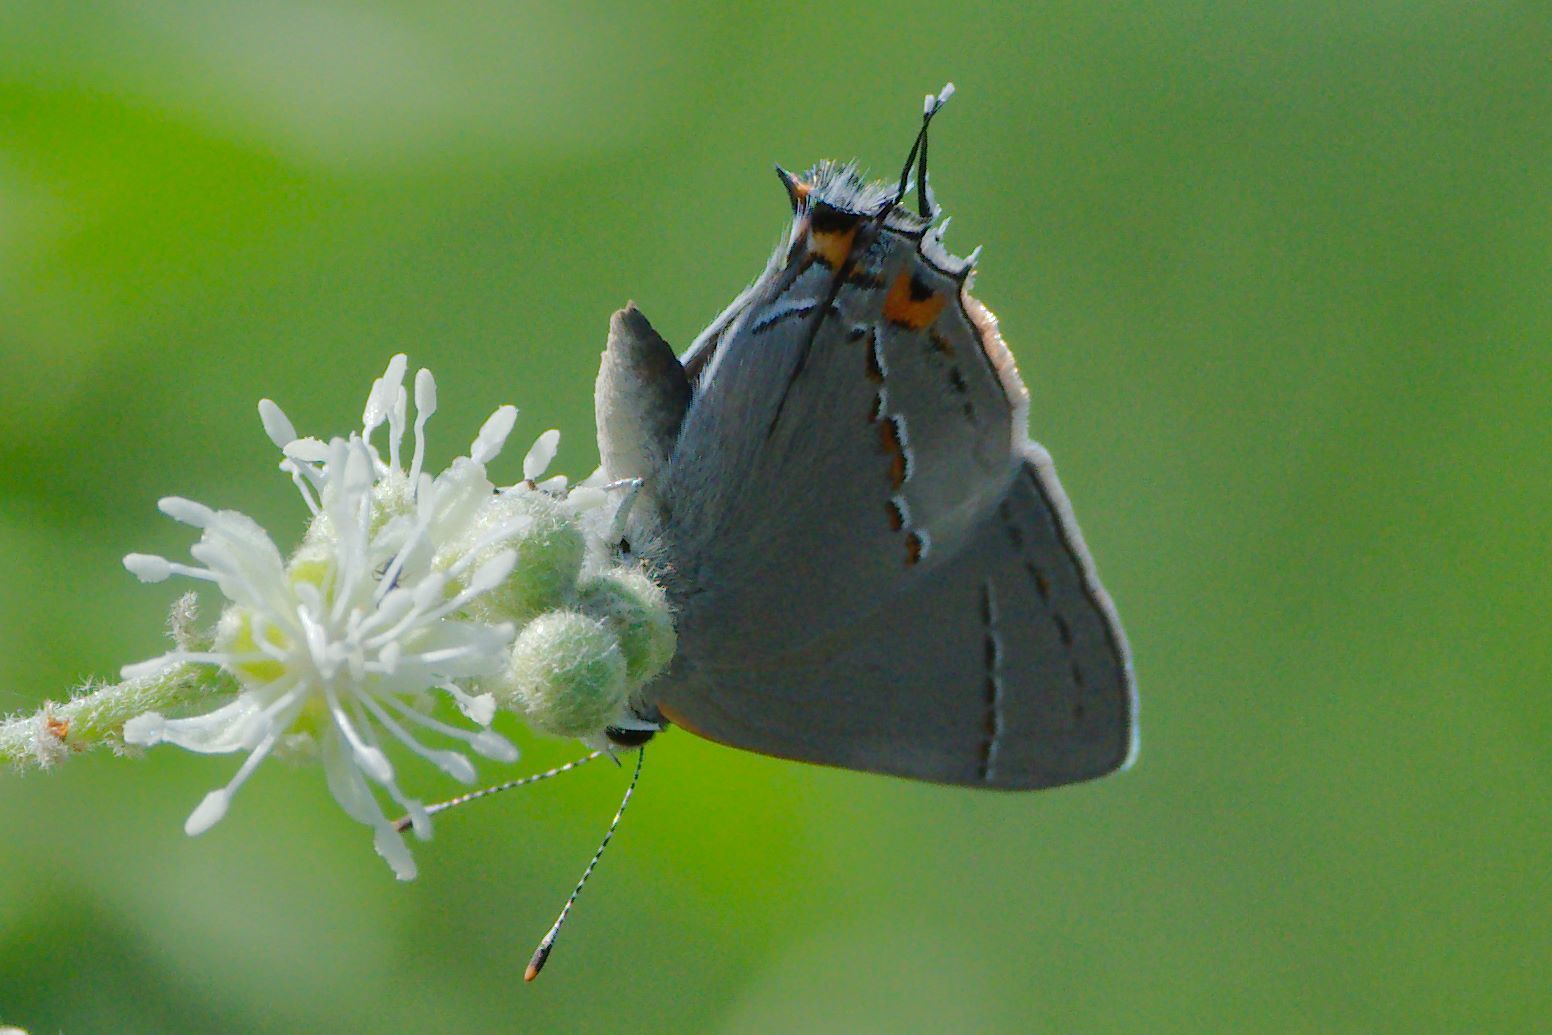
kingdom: Animalia
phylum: Arthropoda
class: Insecta
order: Lepidoptera
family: Lycaenidae
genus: Strymon
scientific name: Strymon melinus
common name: Gray hairstreak
